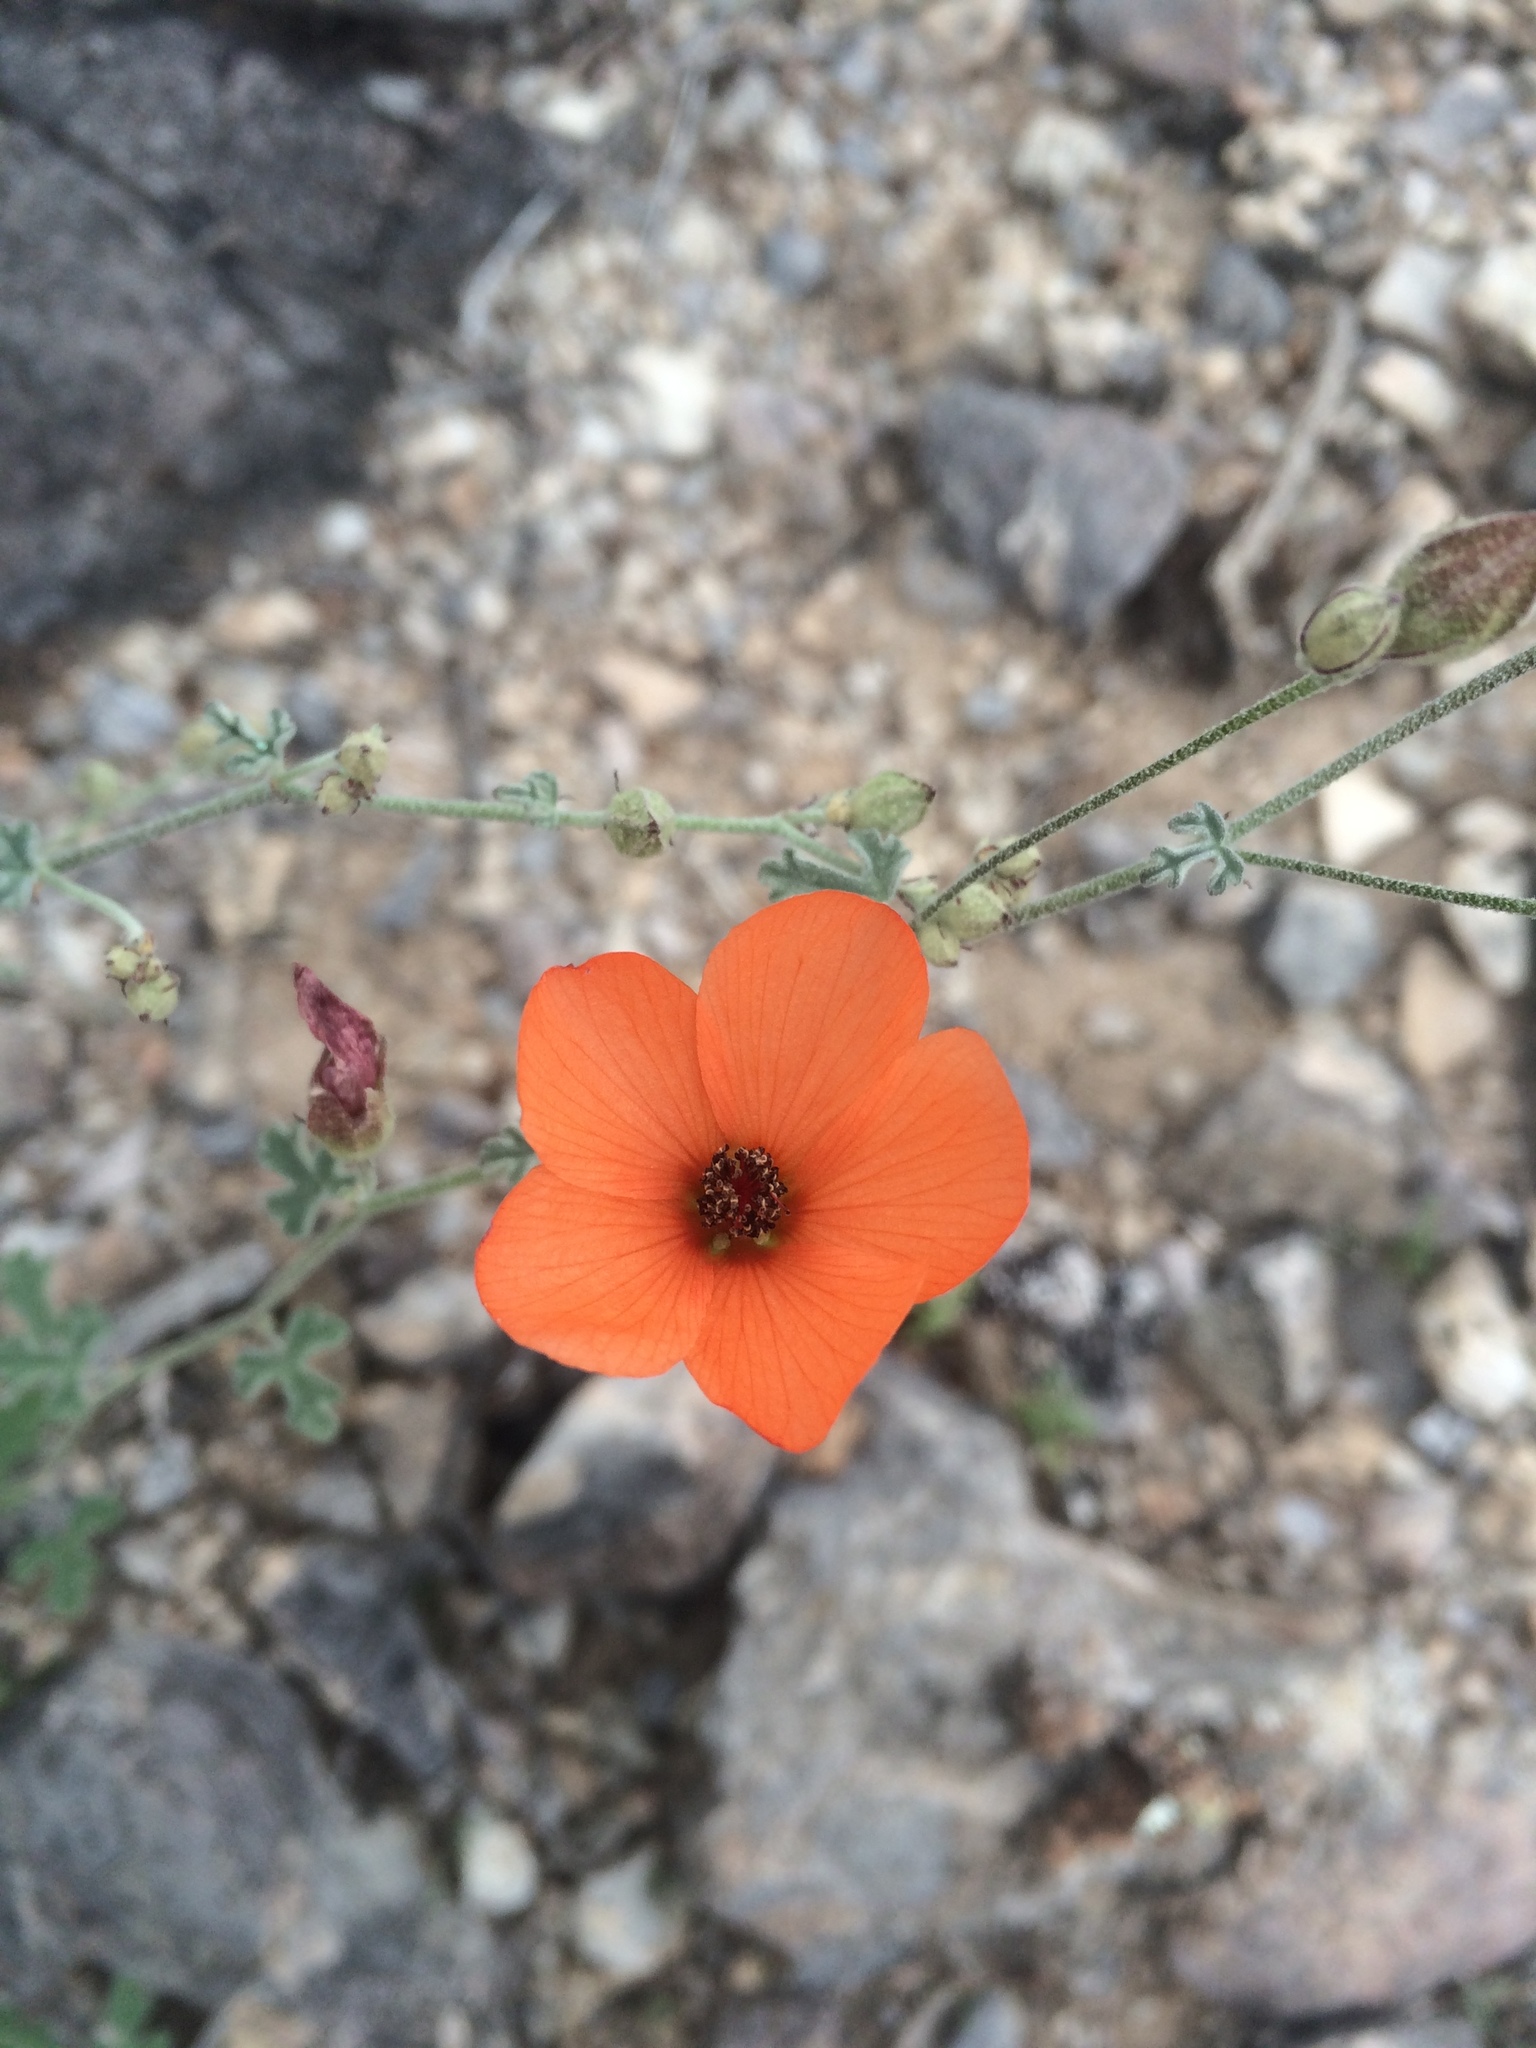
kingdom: Plantae
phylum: Tracheophyta
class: Magnoliopsida
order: Malvales
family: Malvaceae
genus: Sphaeralcea
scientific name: Sphaeralcea laxa
